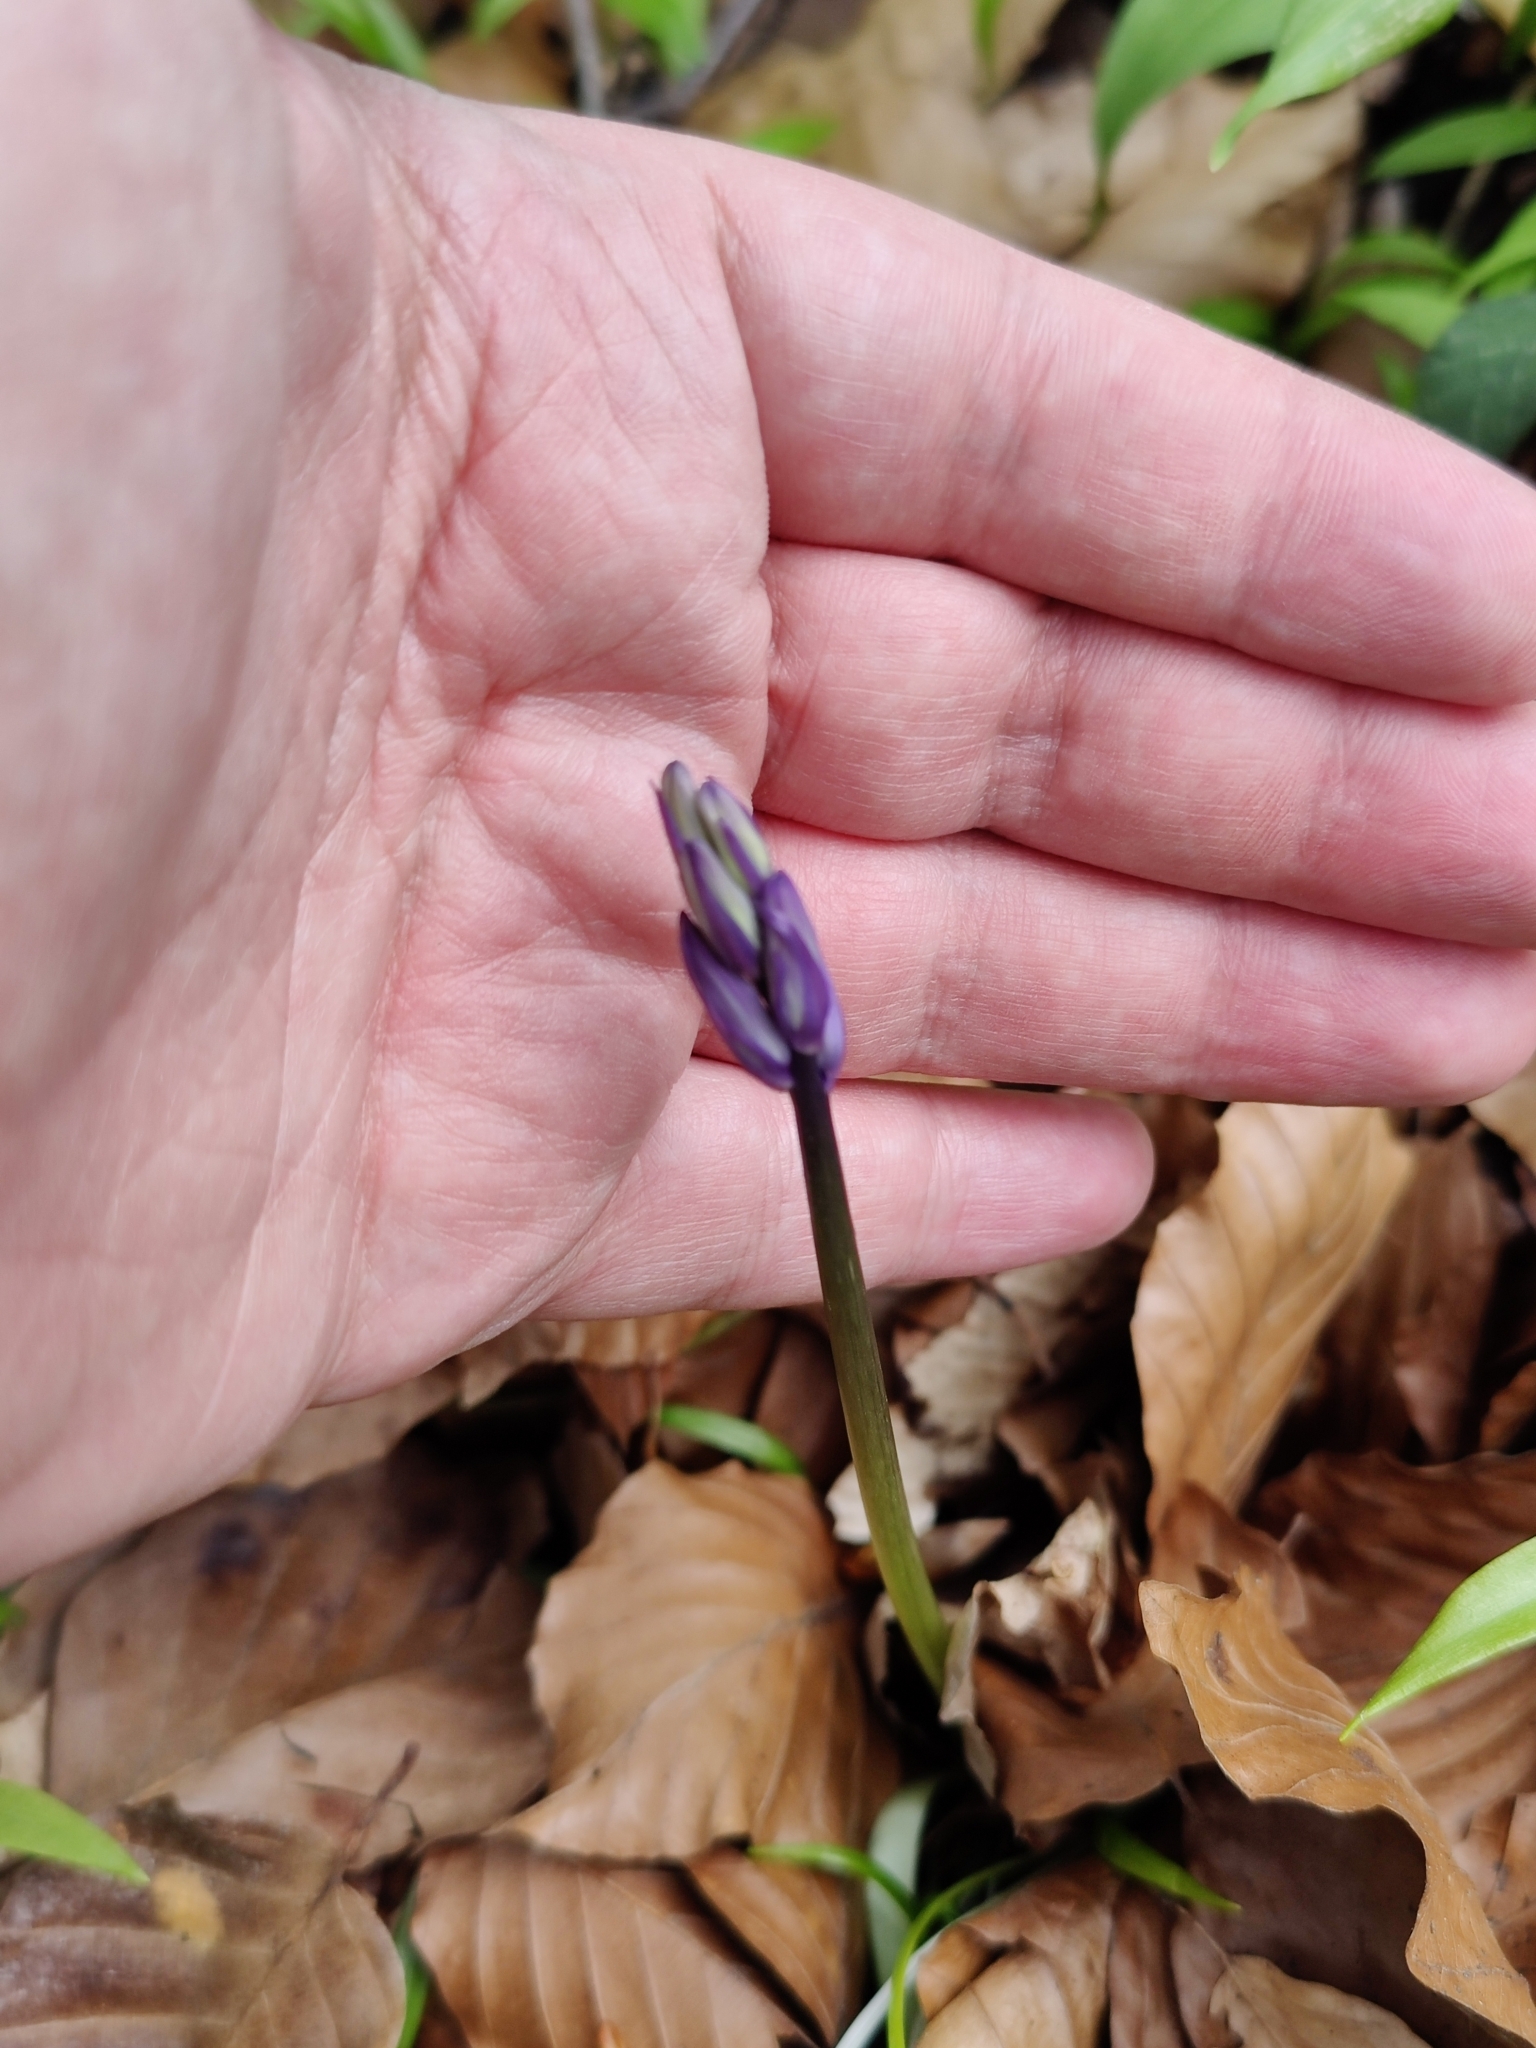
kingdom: Plantae
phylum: Tracheophyta
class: Liliopsida
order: Asparagales
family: Asparagaceae
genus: Hyacinthoides
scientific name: Hyacinthoides non-scripta
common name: Bluebell
